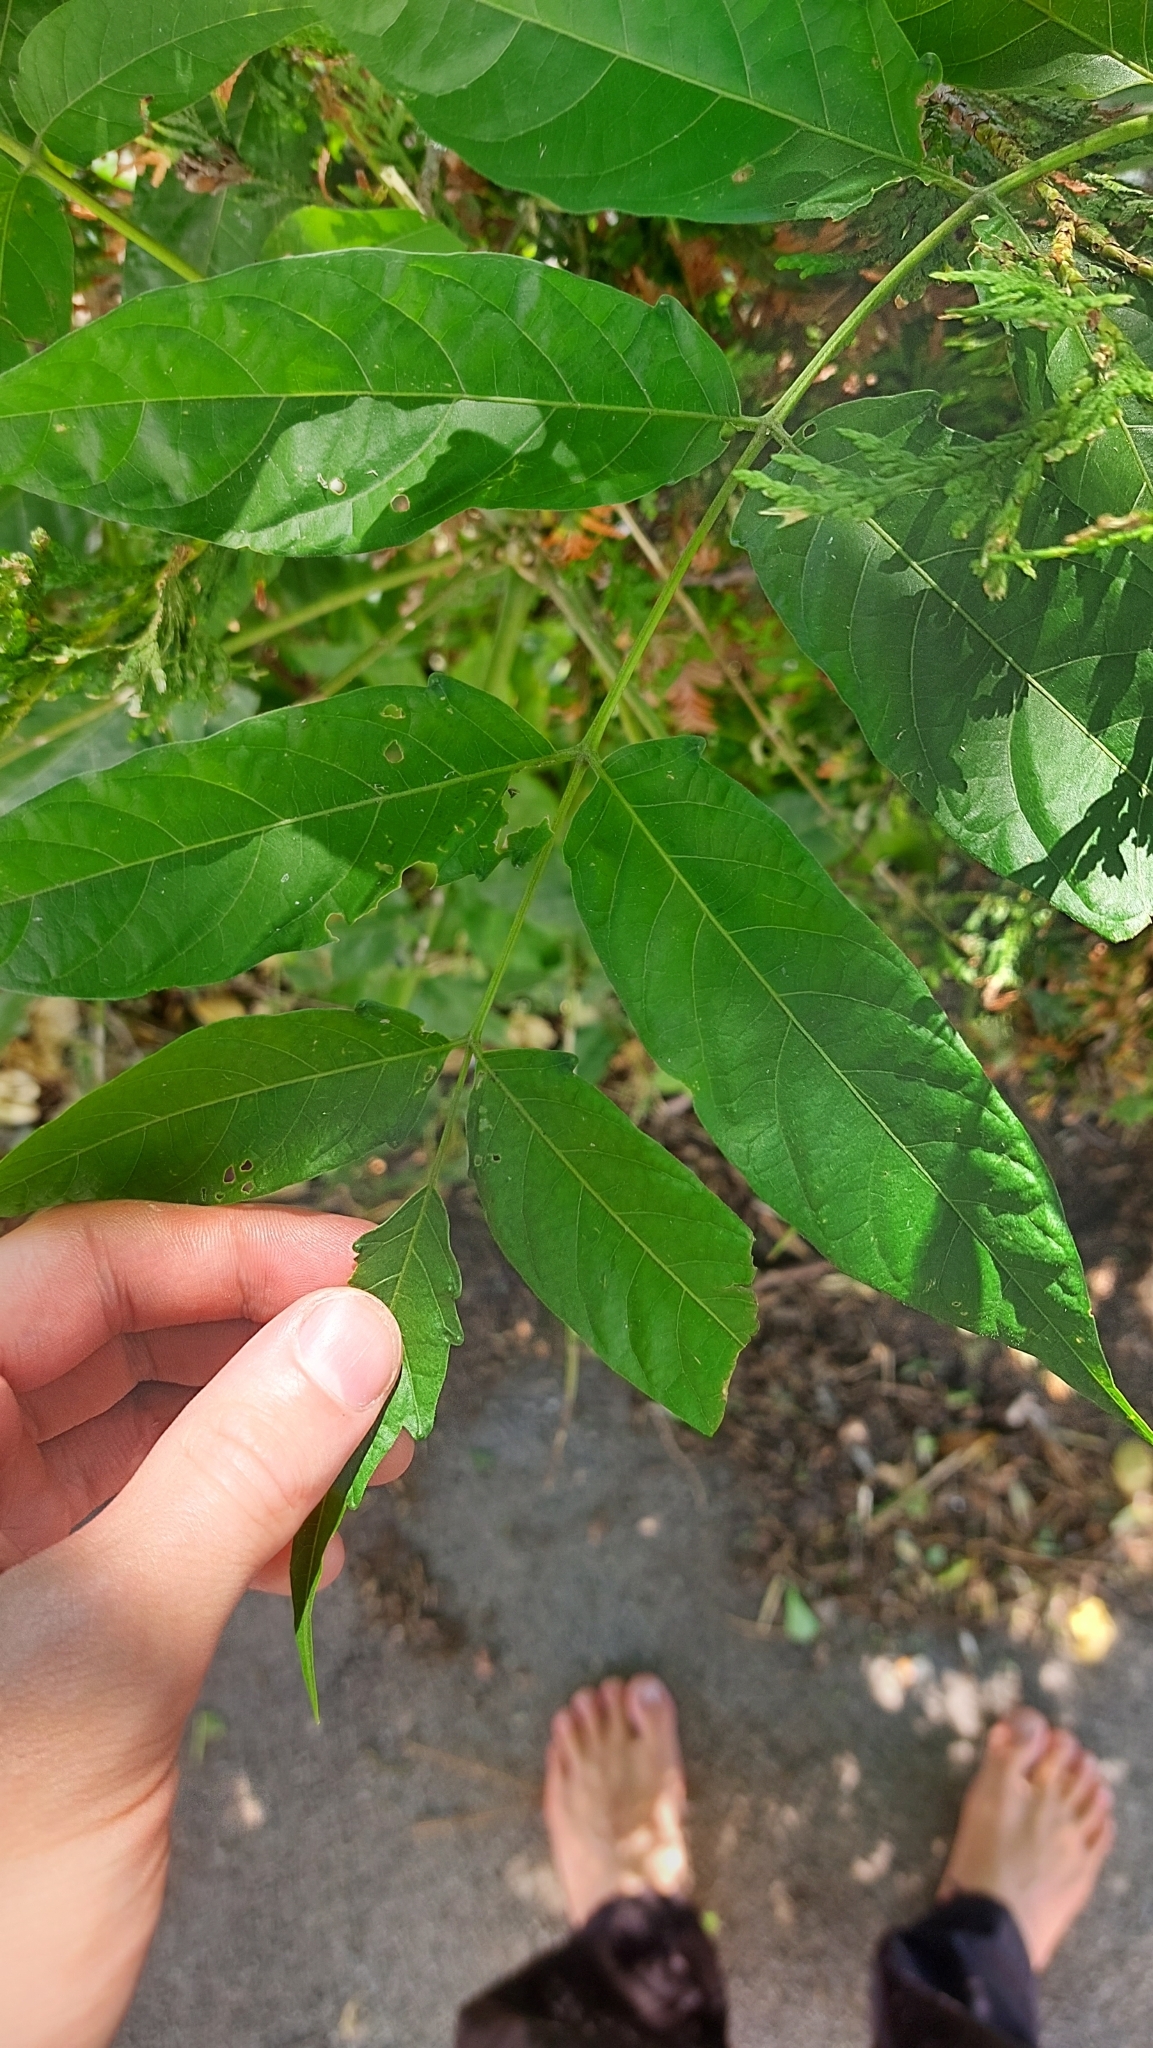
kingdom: Plantae
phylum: Tracheophyta
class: Magnoliopsida
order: Sapindales
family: Simaroubaceae
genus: Ailanthus
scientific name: Ailanthus altissima
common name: Tree-of-heaven
